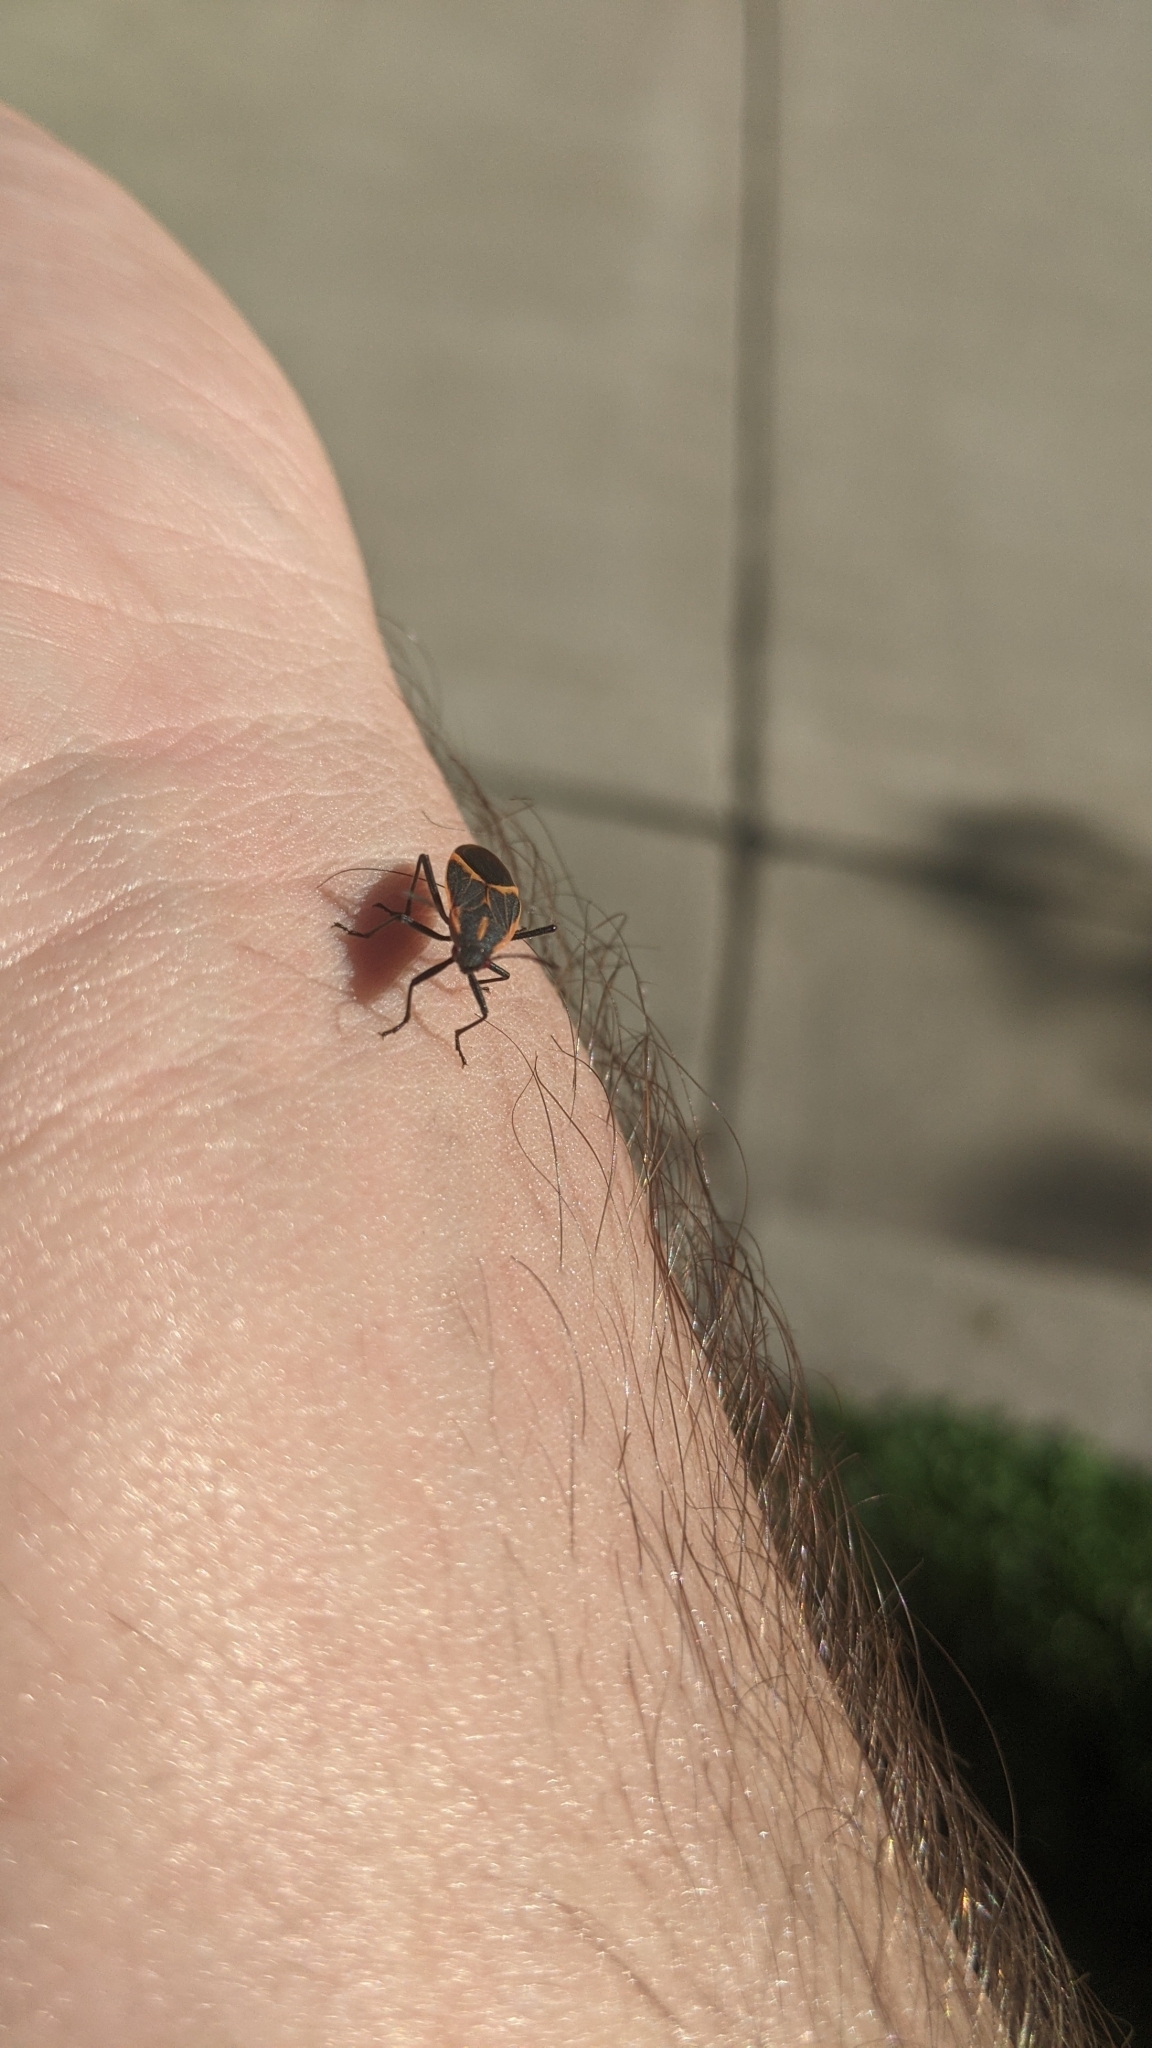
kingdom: Animalia
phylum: Arthropoda
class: Insecta
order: Hemiptera
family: Rhopalidae
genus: Boisea
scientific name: Boisea trivittata
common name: Boxelder bug
